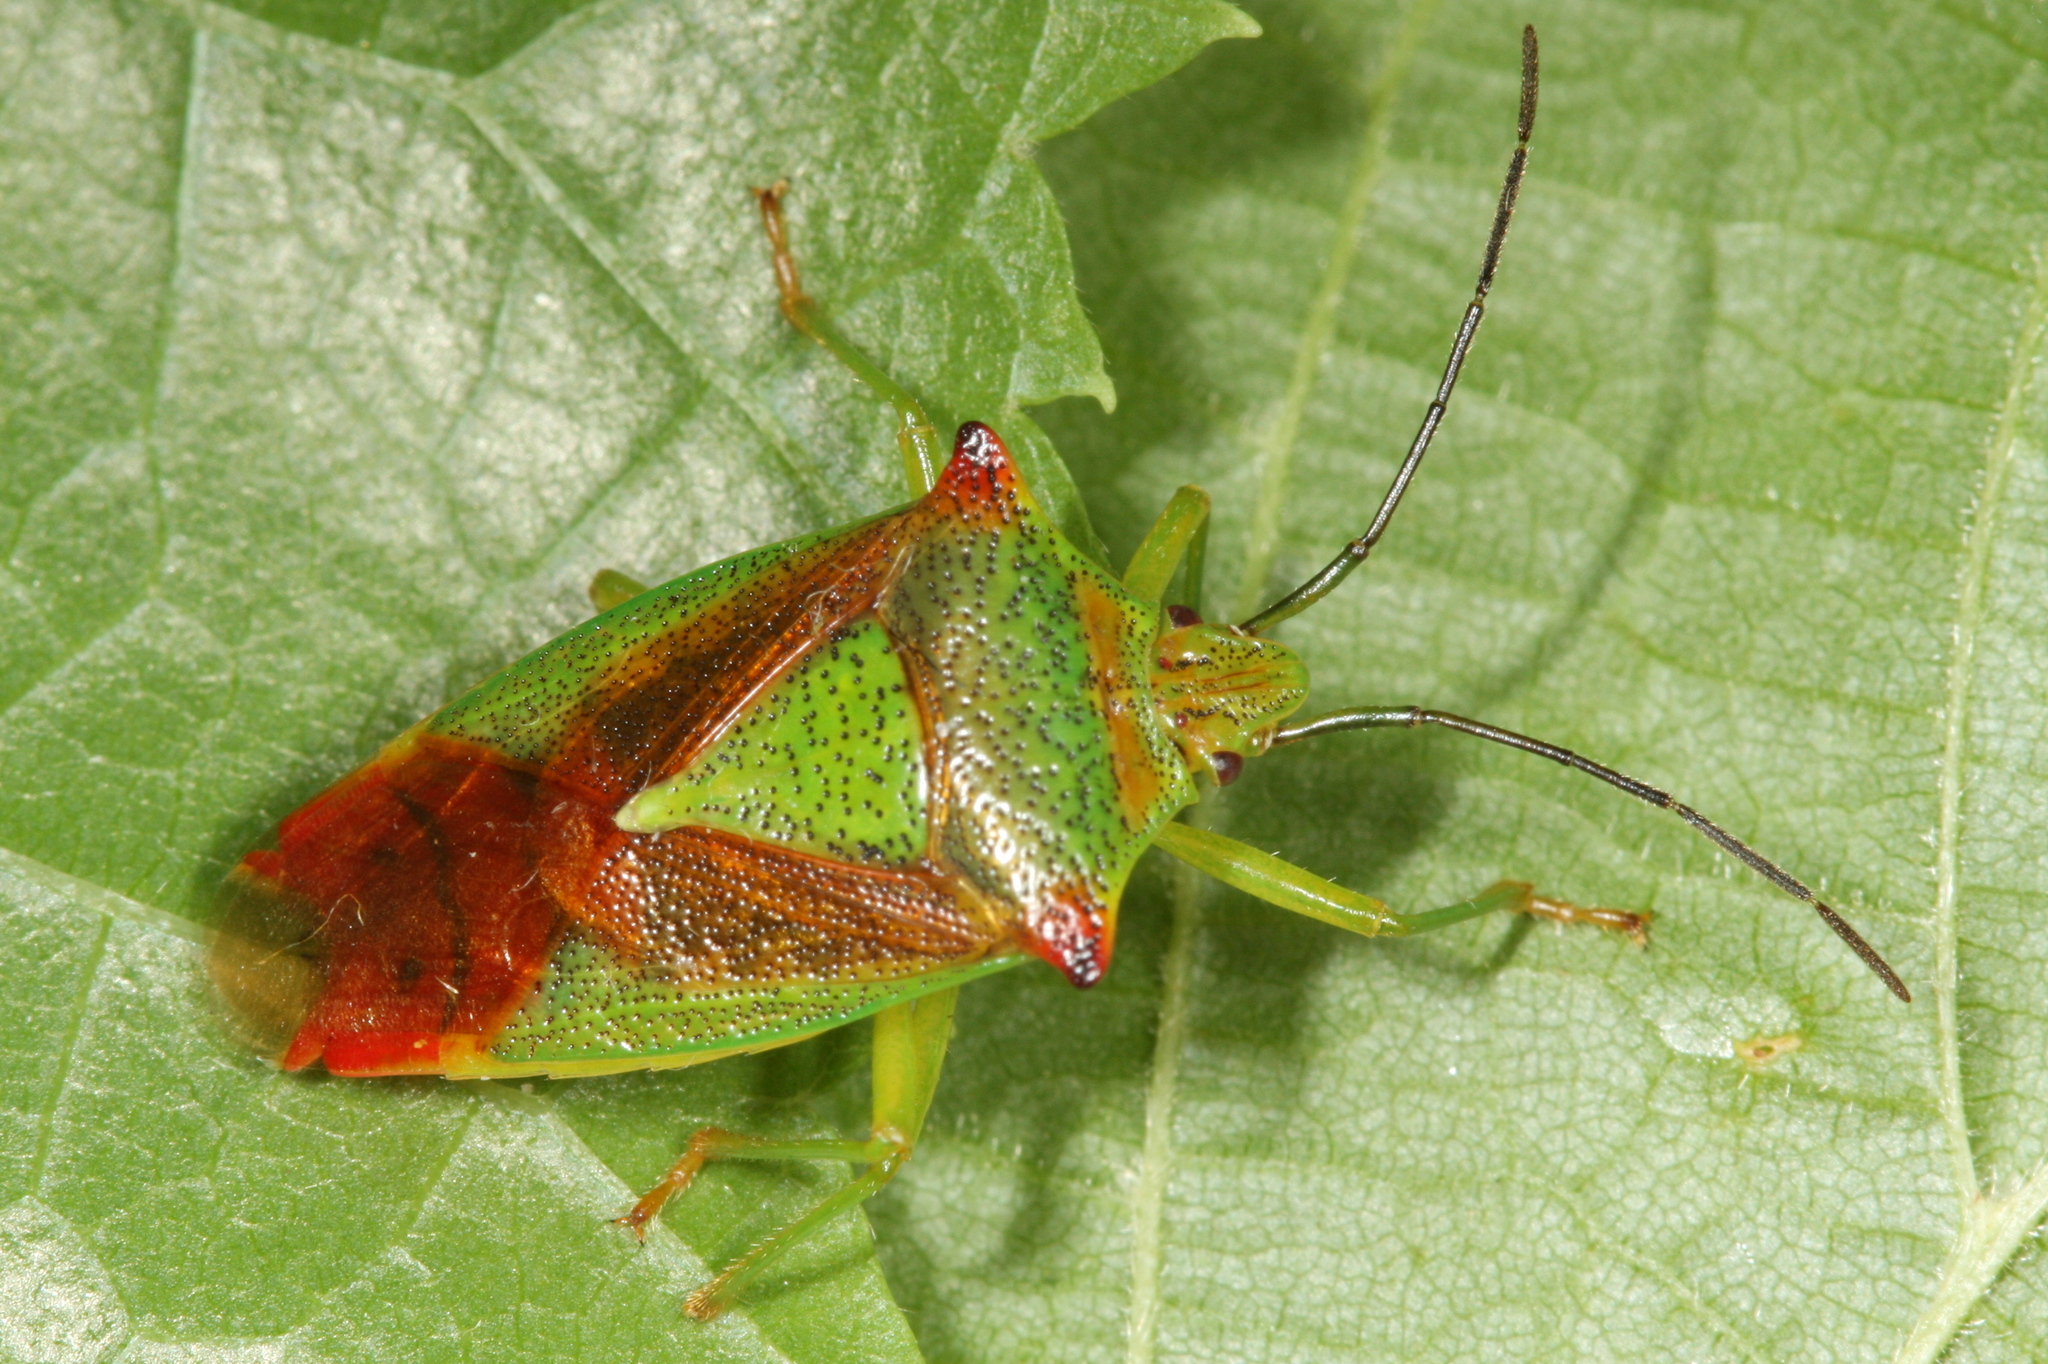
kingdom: Animalia
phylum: Arthropoda
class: Insecta
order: Hemiptera
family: Acanthosomatidae
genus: Acanthosoma
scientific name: Acanthosoma haemorrhoidale
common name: Hawthorn shieldbug
